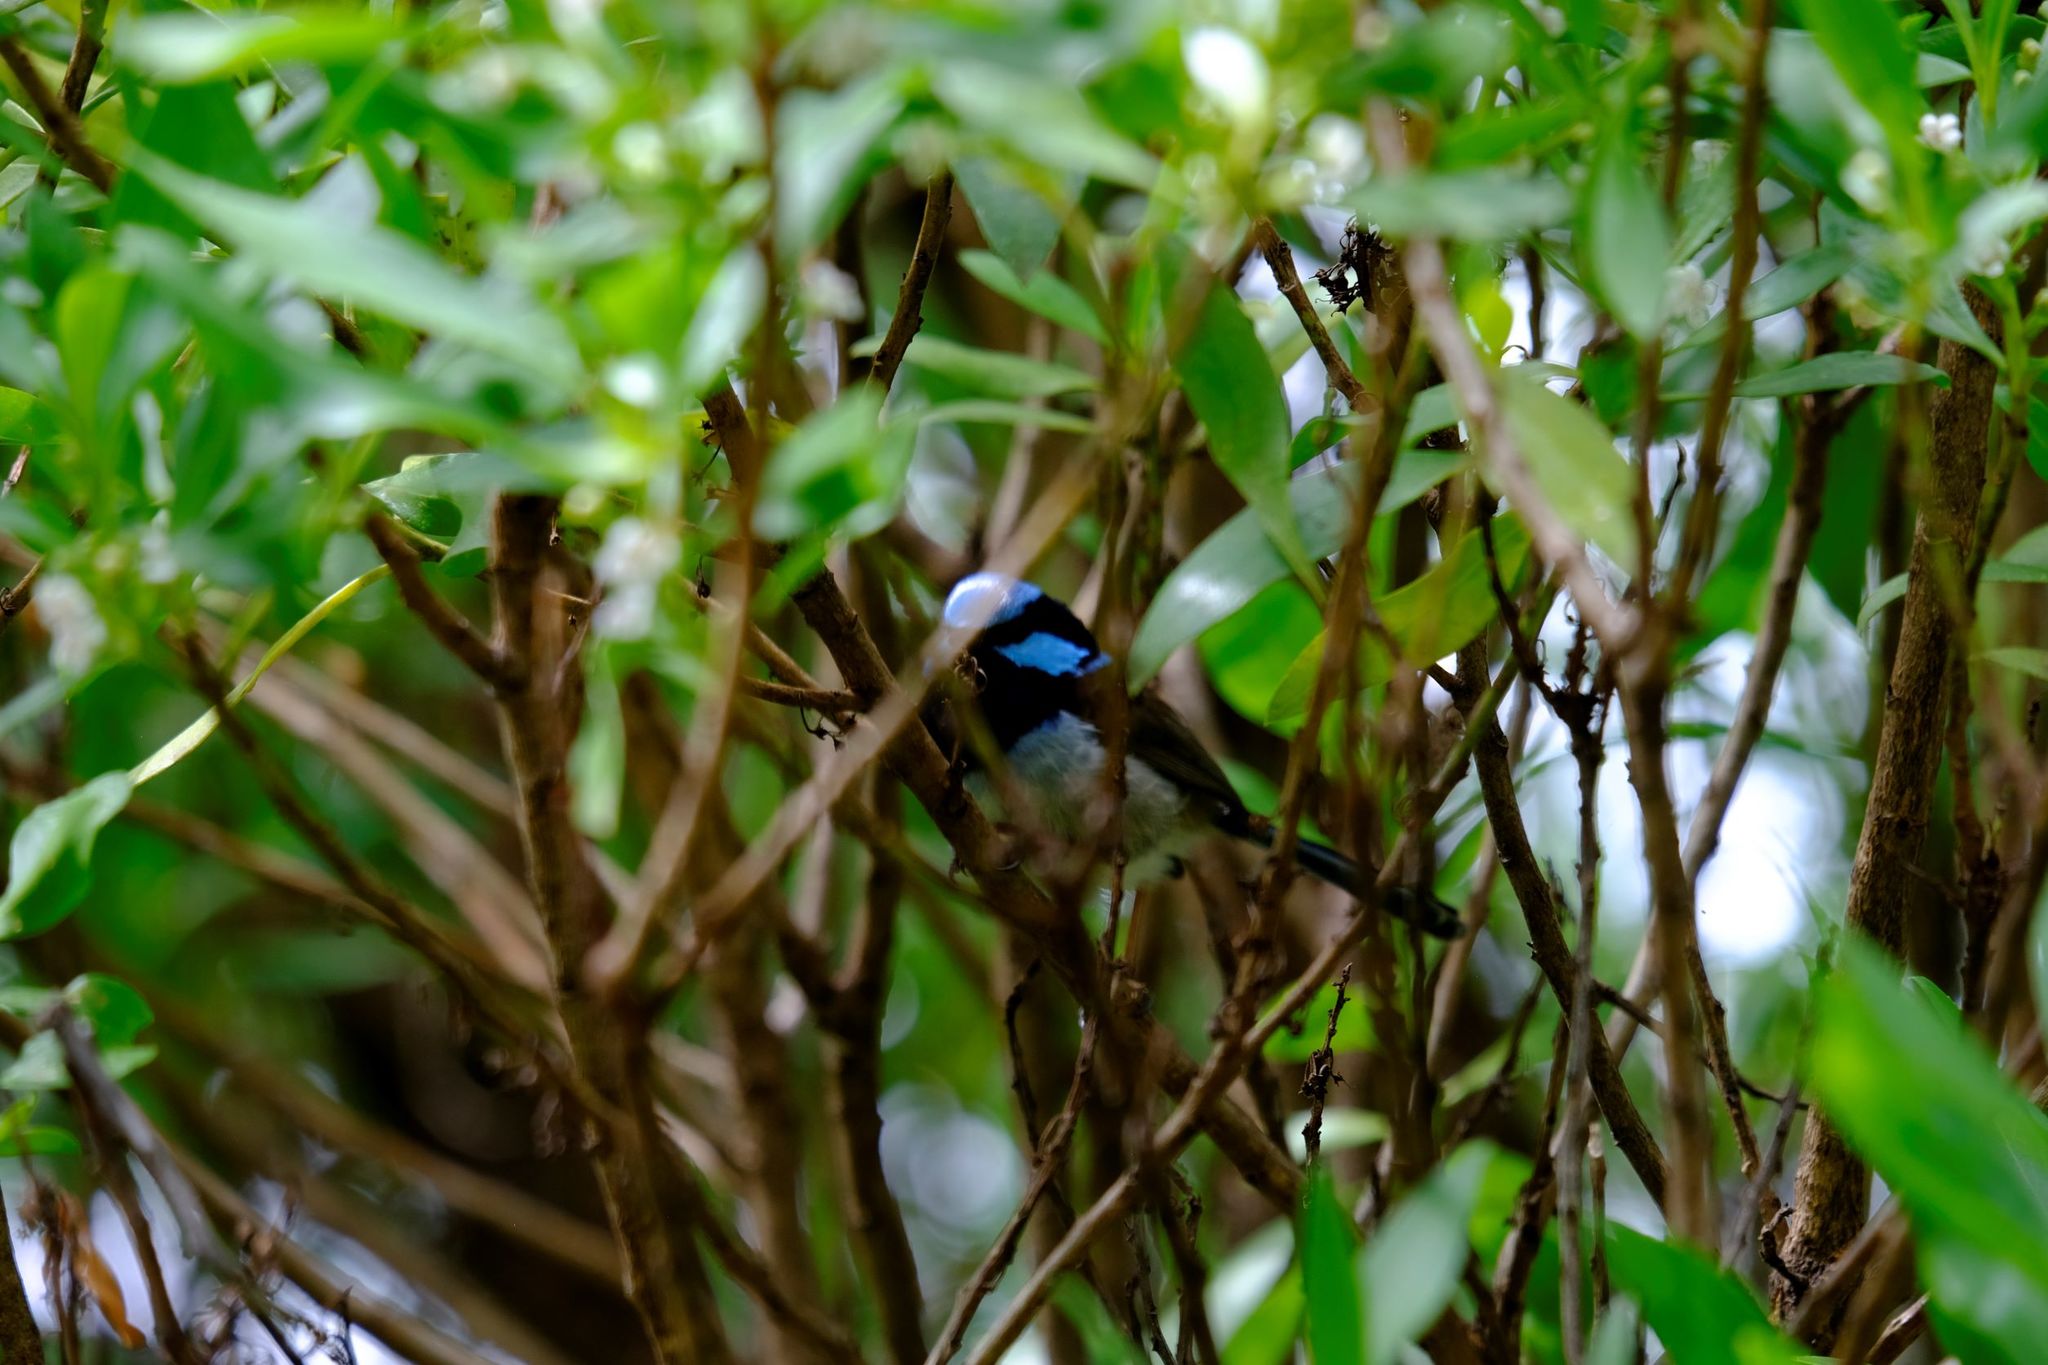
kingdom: Animalia
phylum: Chordata
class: Aves
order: Passeriformes
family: Maluridae
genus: Malurus
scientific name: Malurus cyaneus
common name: Superb fairywren
